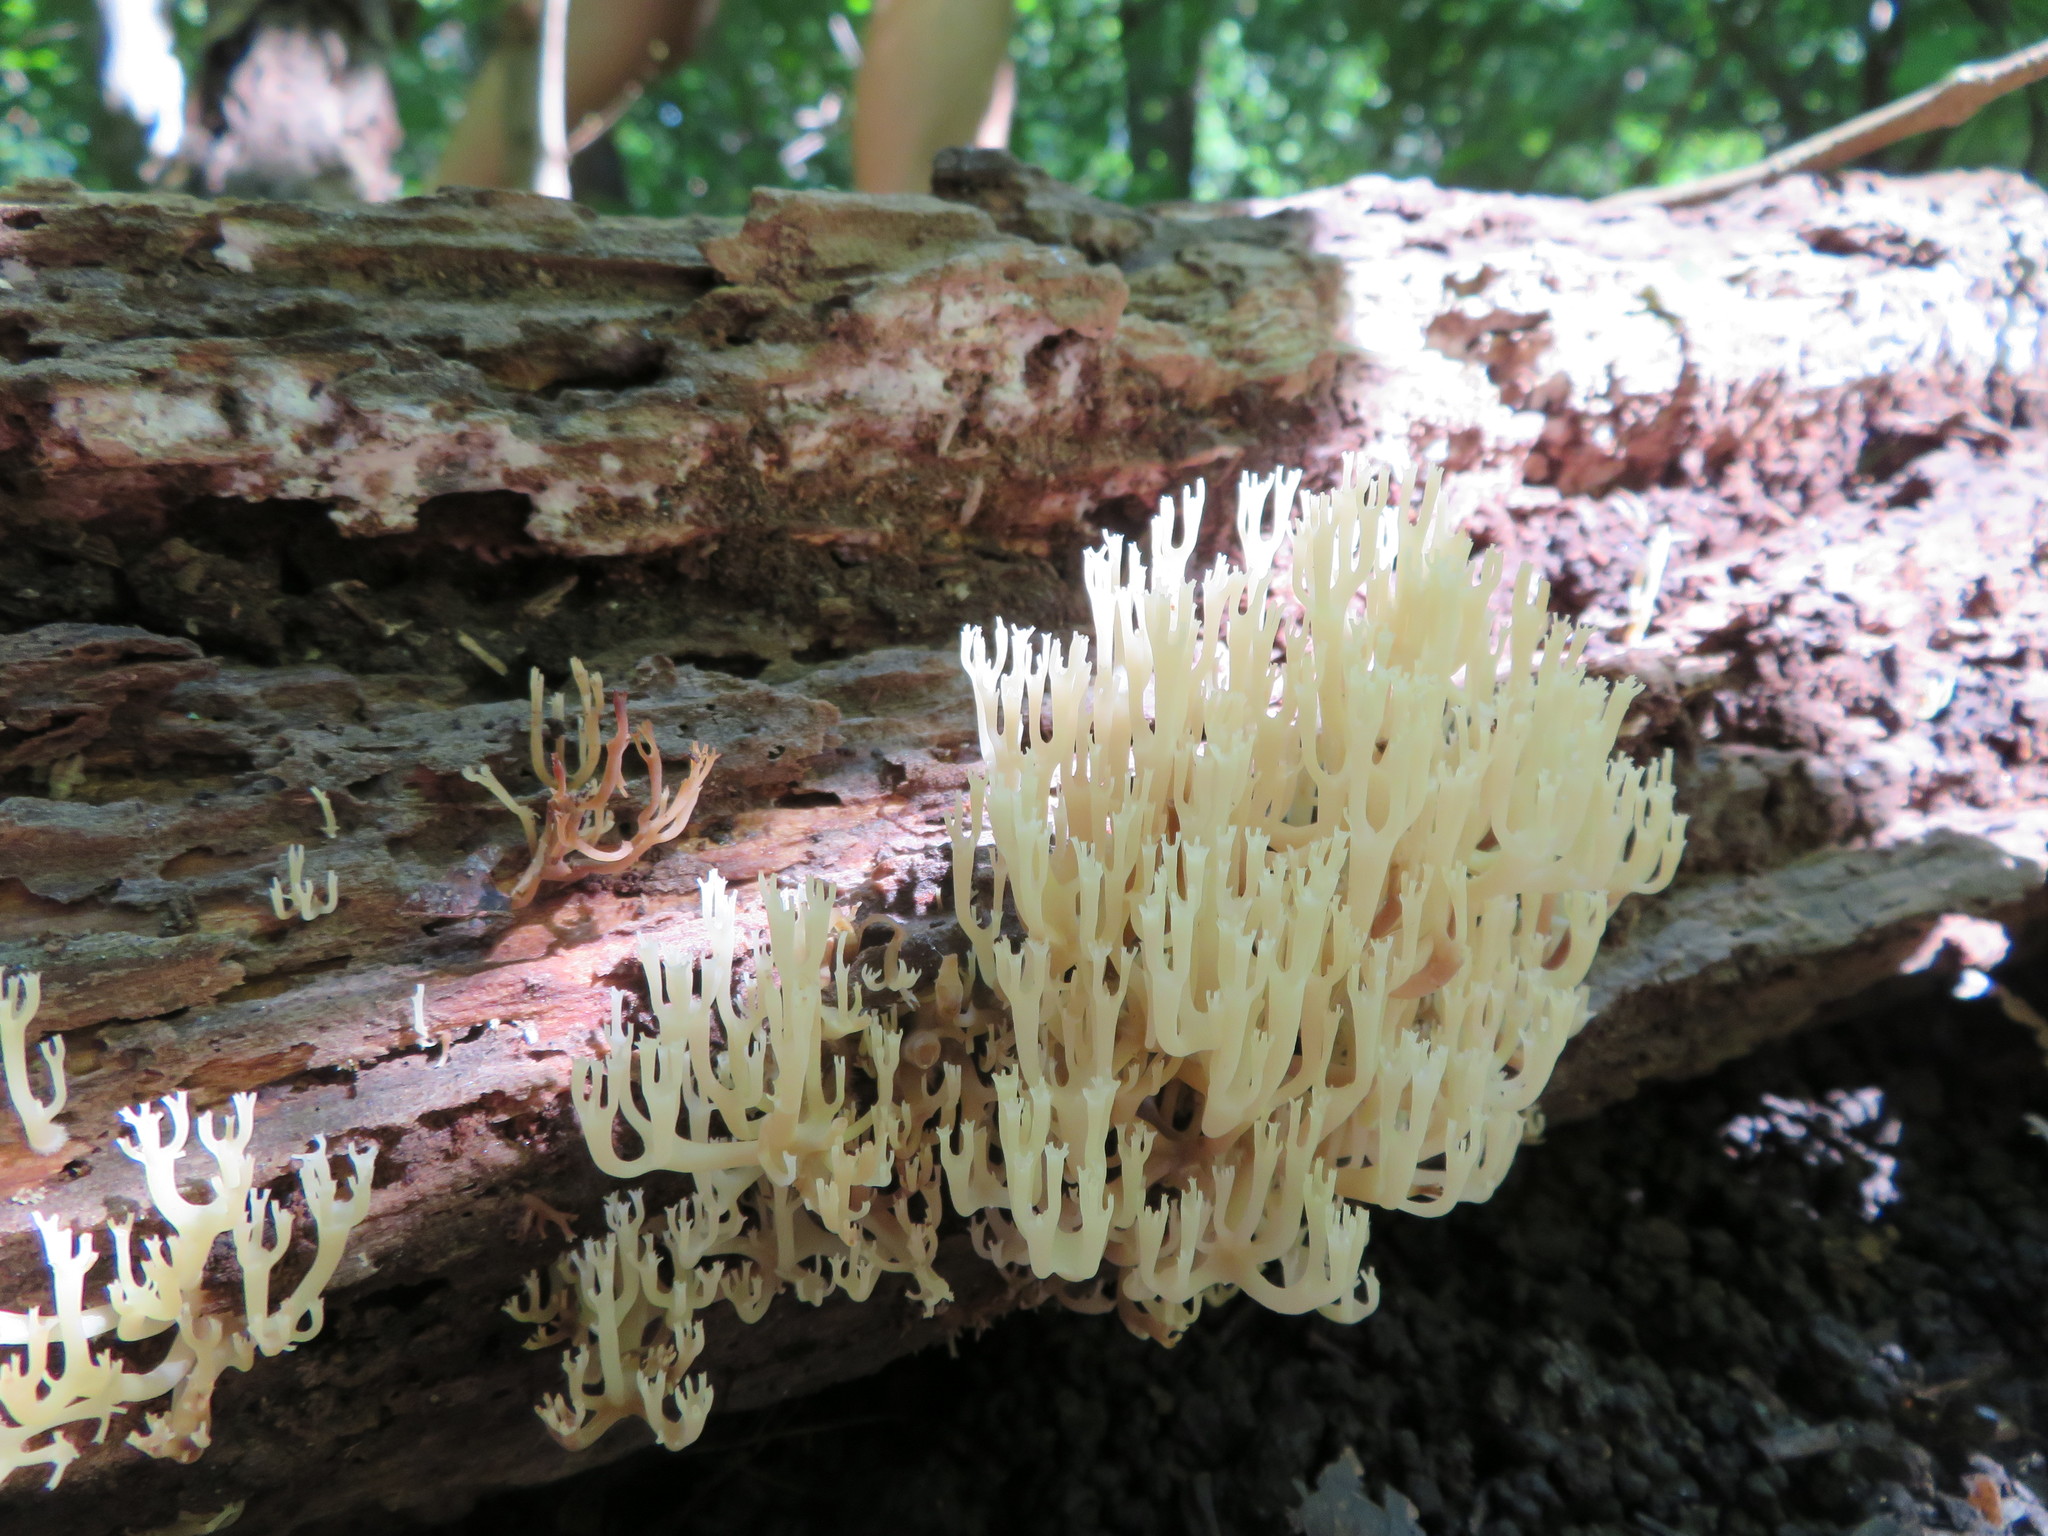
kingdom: Fungi
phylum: Basidiomycota
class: Agaricomycetes
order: Russulales
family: Auriscalpiaceae
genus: Artomyces
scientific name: Artomyces pyxidatus
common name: Crown-tipped coral fungus
